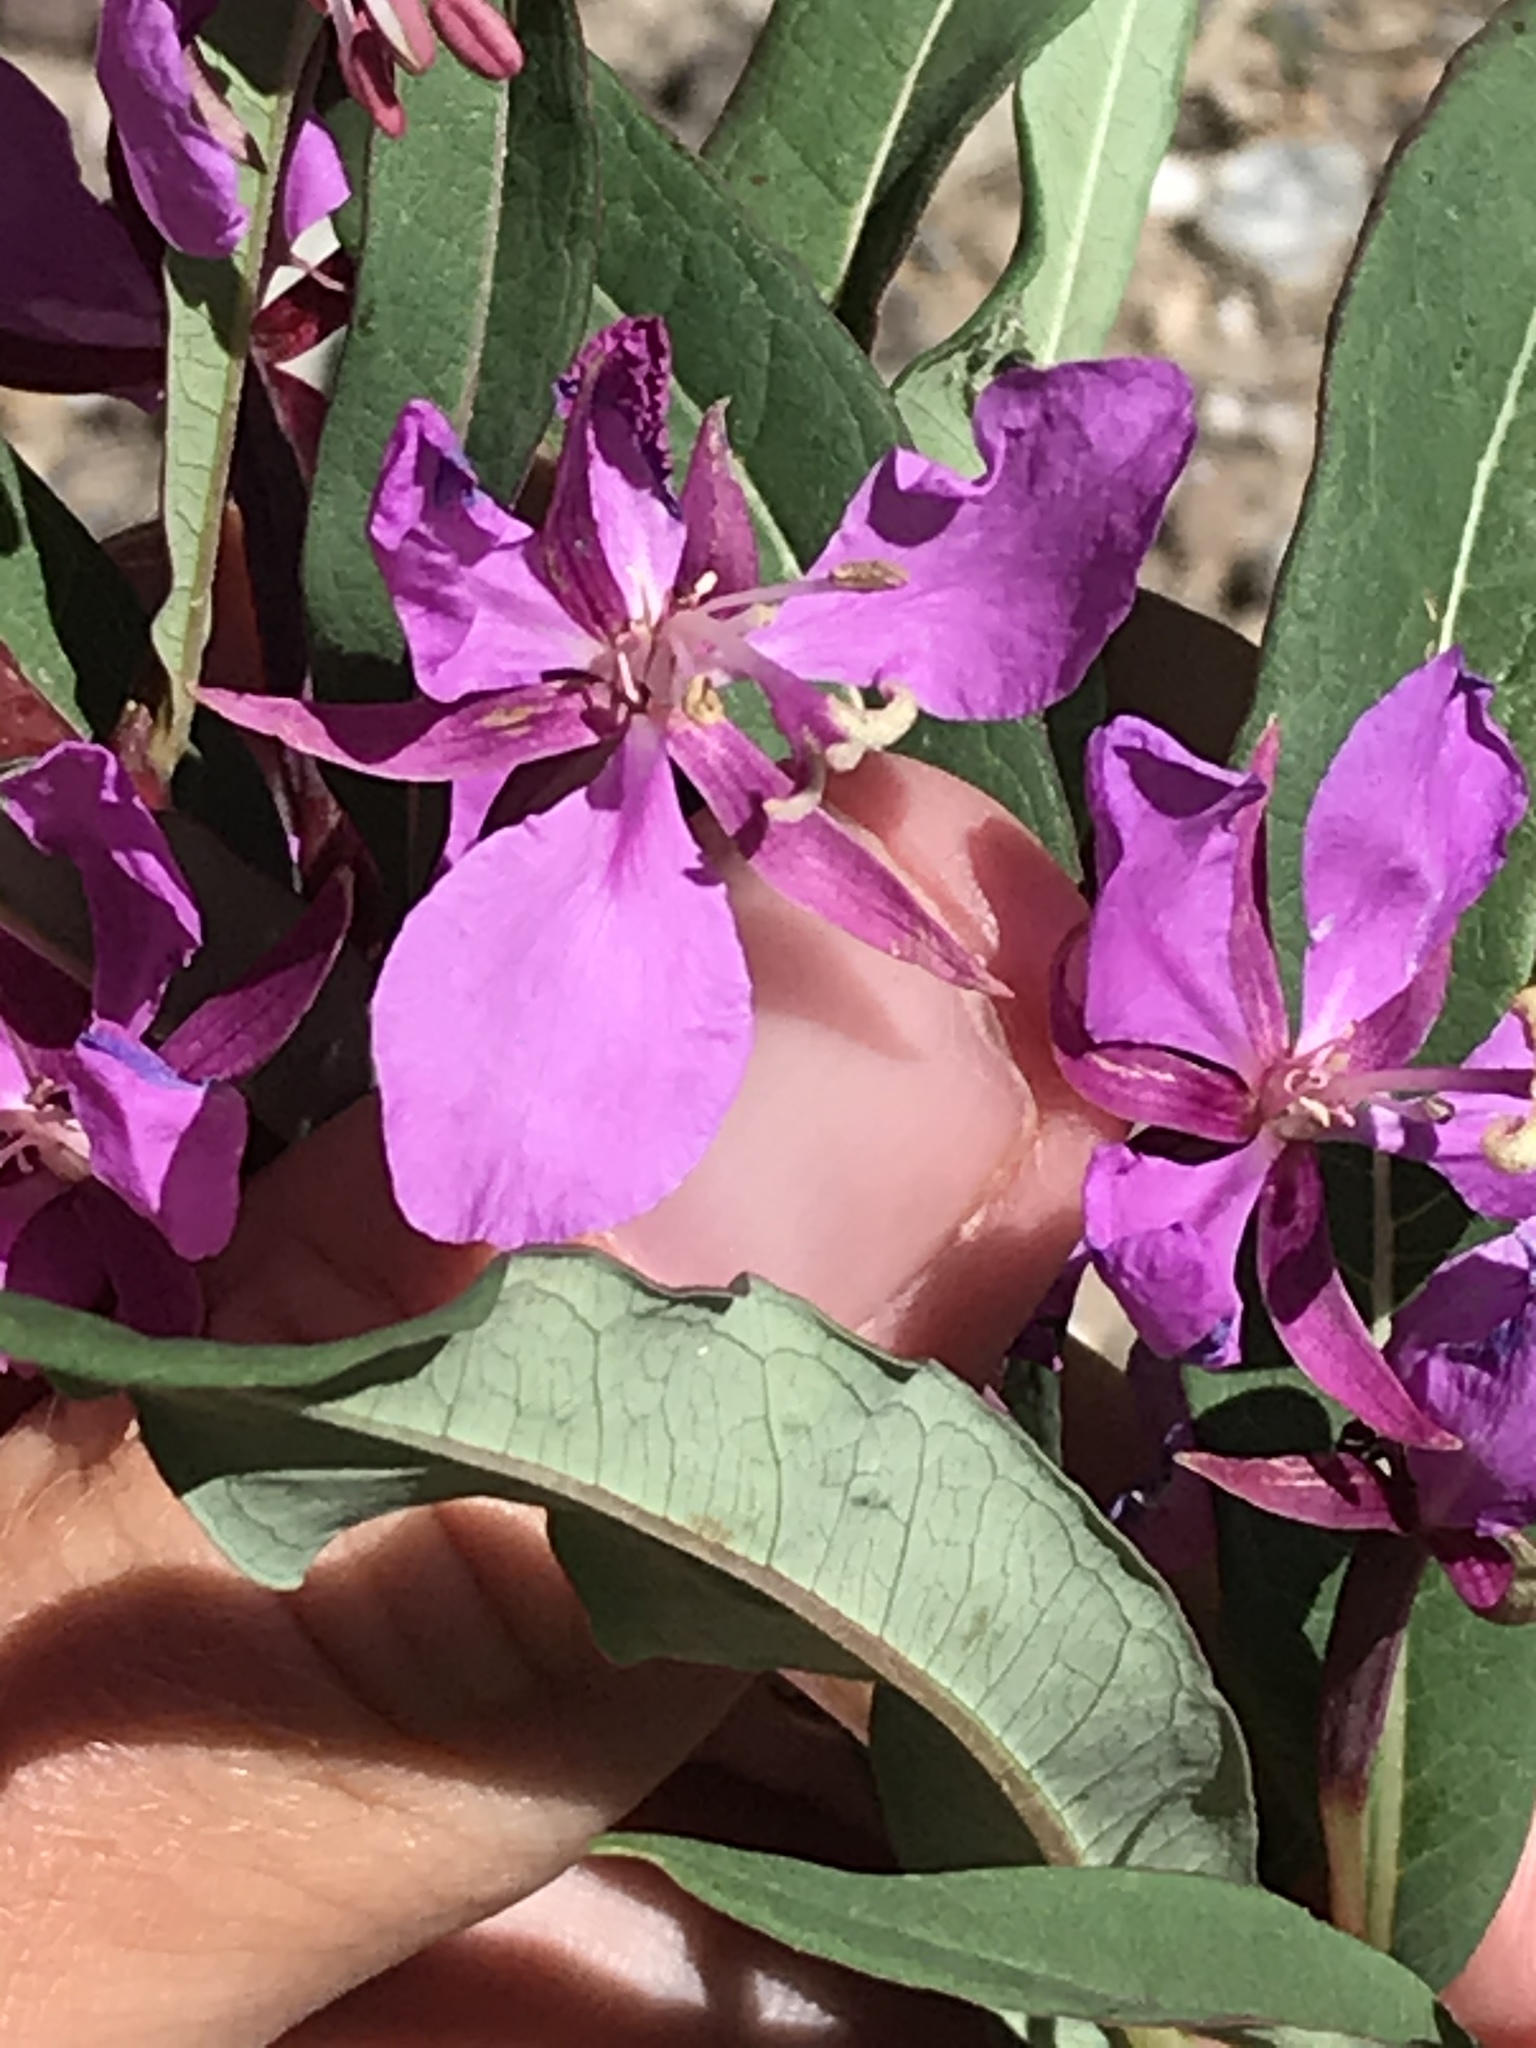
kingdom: Plantae
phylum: Tracheophyta
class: Magnoliopsida
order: Myrtales
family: Onagraceae
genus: Chamaenerion
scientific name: Chamaenerion angustifolium
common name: Fireweed
